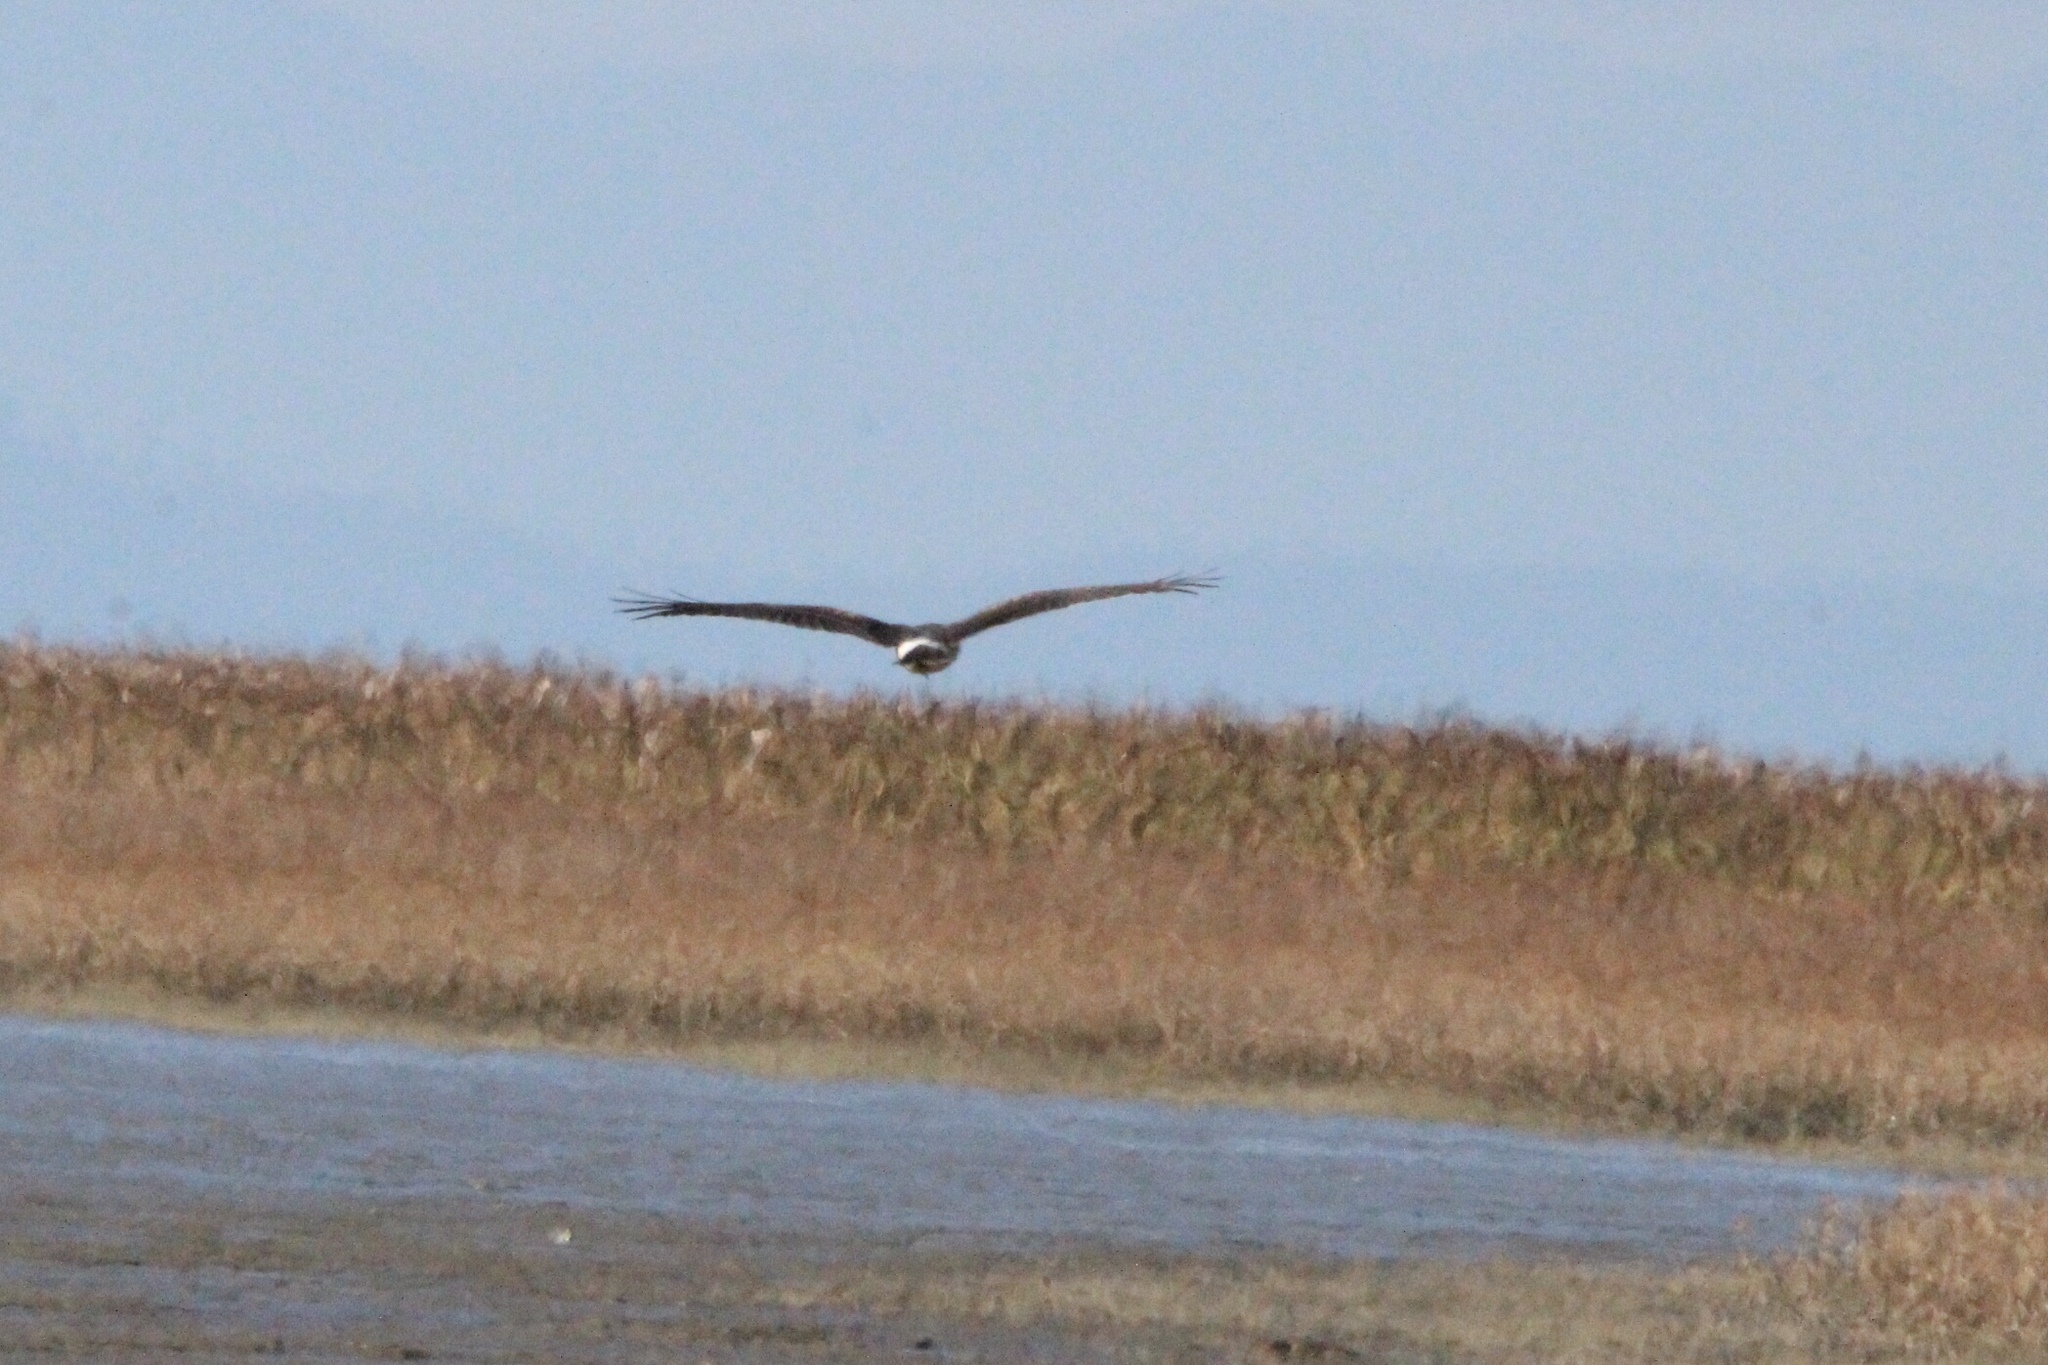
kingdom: Animalia
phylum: Chordata
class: Aves
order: Accipitriformes
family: Accipitridae
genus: Circus
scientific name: Circus cyaneus
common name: Hen harrier
